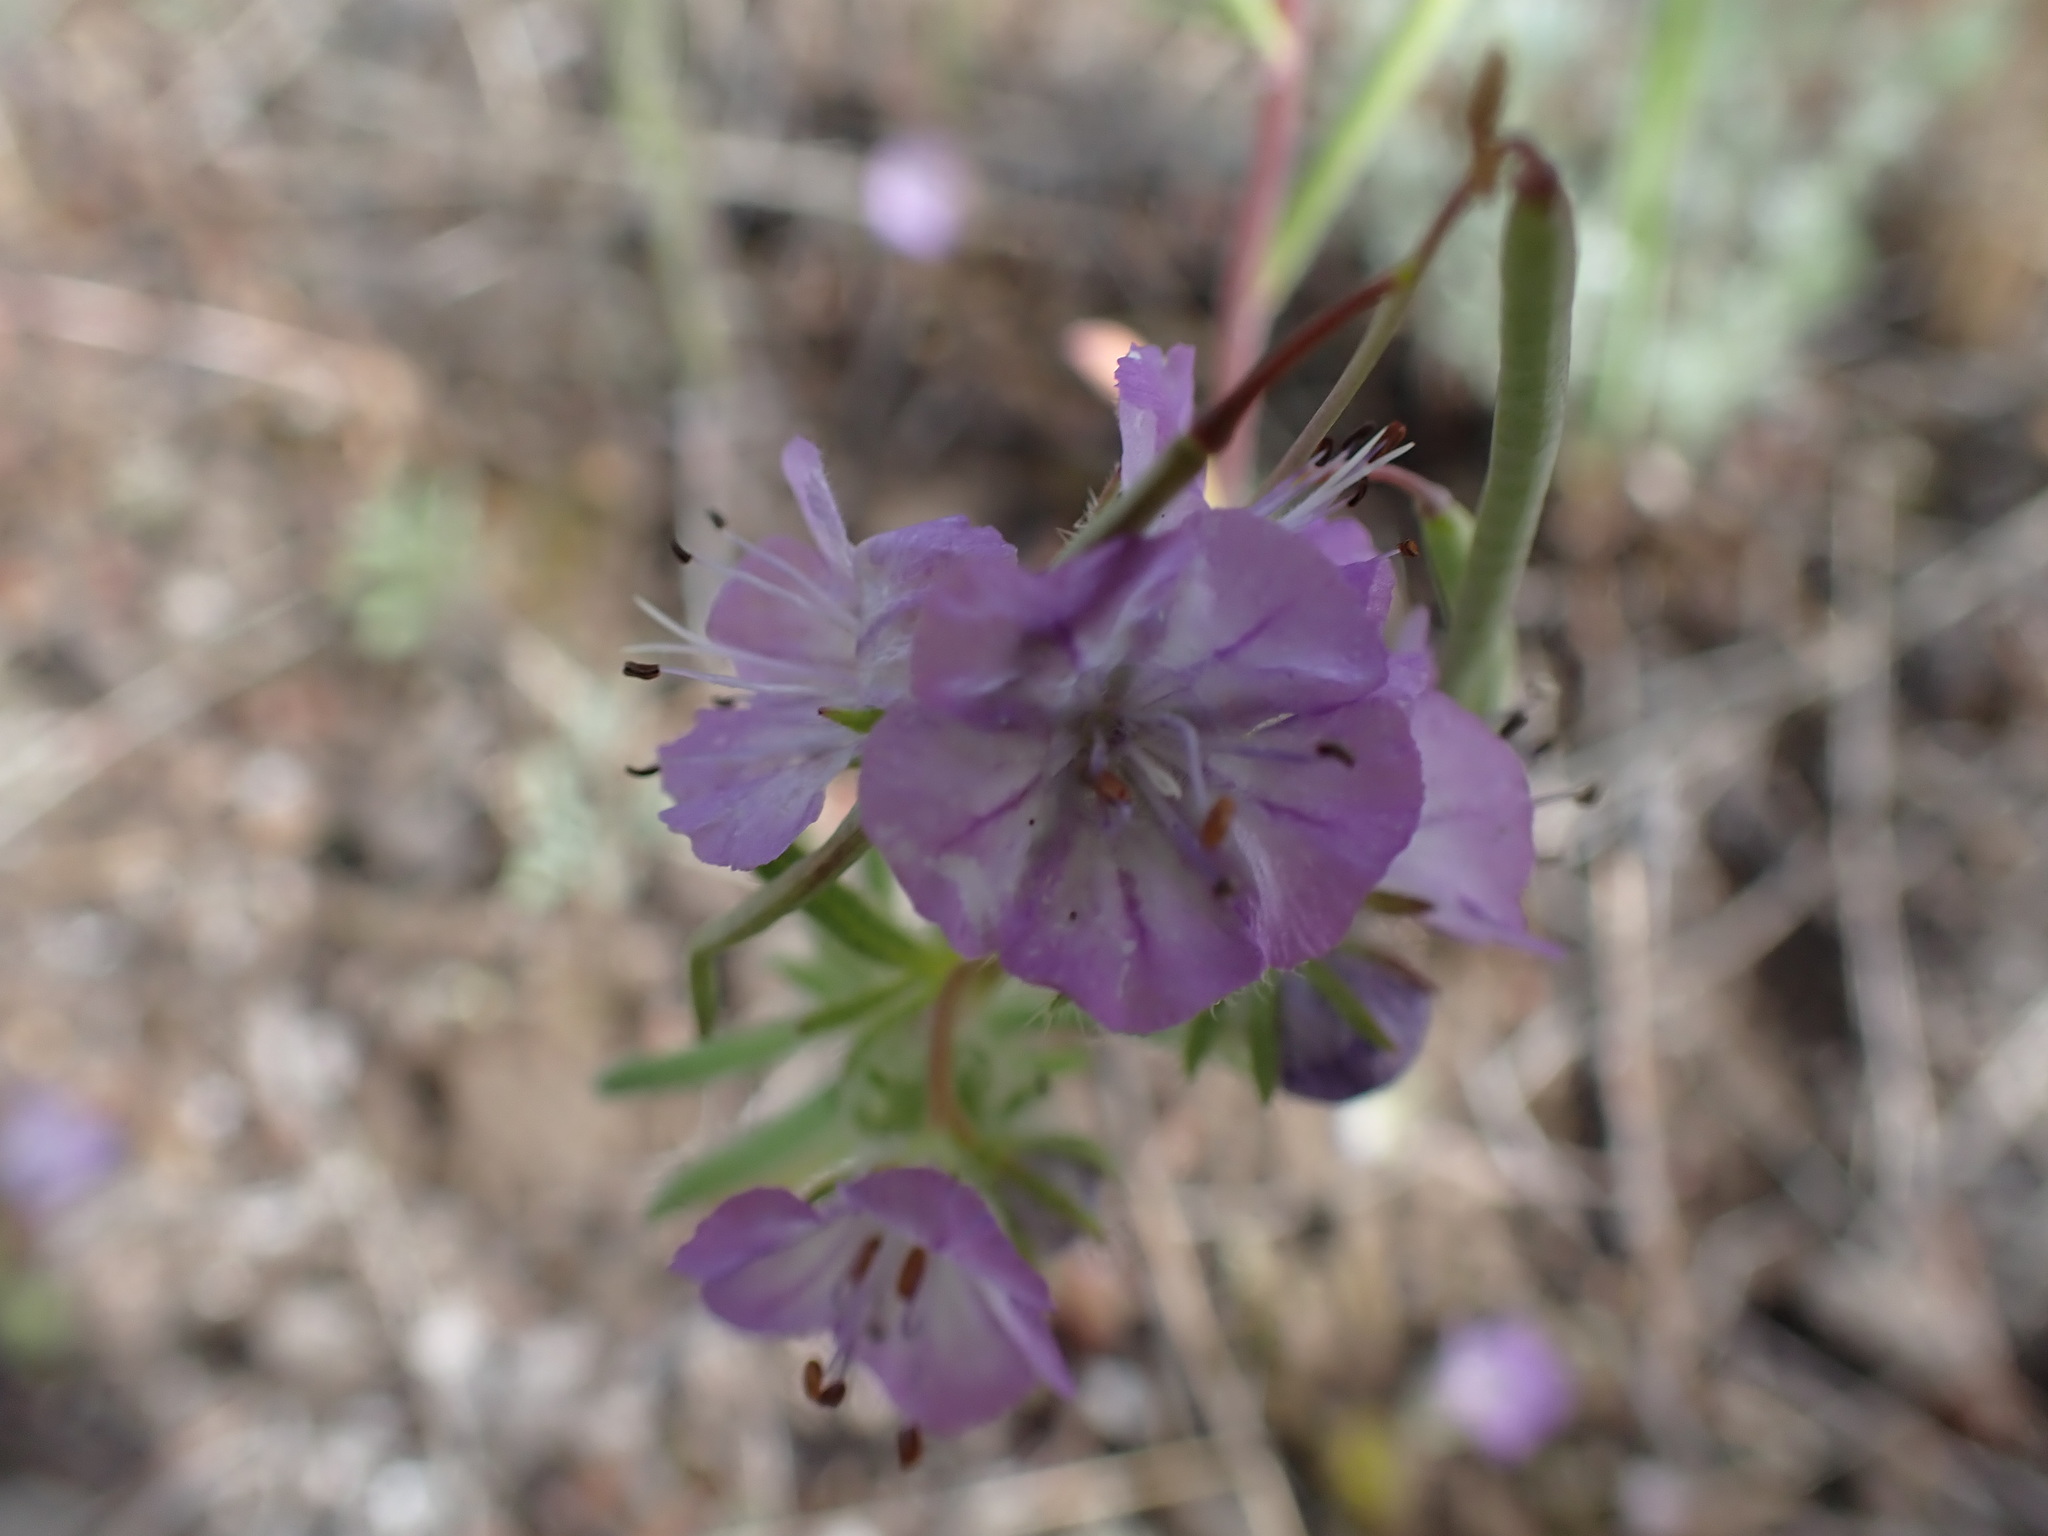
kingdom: Plantae
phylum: Tracheophyta
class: Magnoliopsida
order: Boraginales
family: Hydrophyllaceae
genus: Phacelia
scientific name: Phacelia linearis
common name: Linear-leaved phacelia
